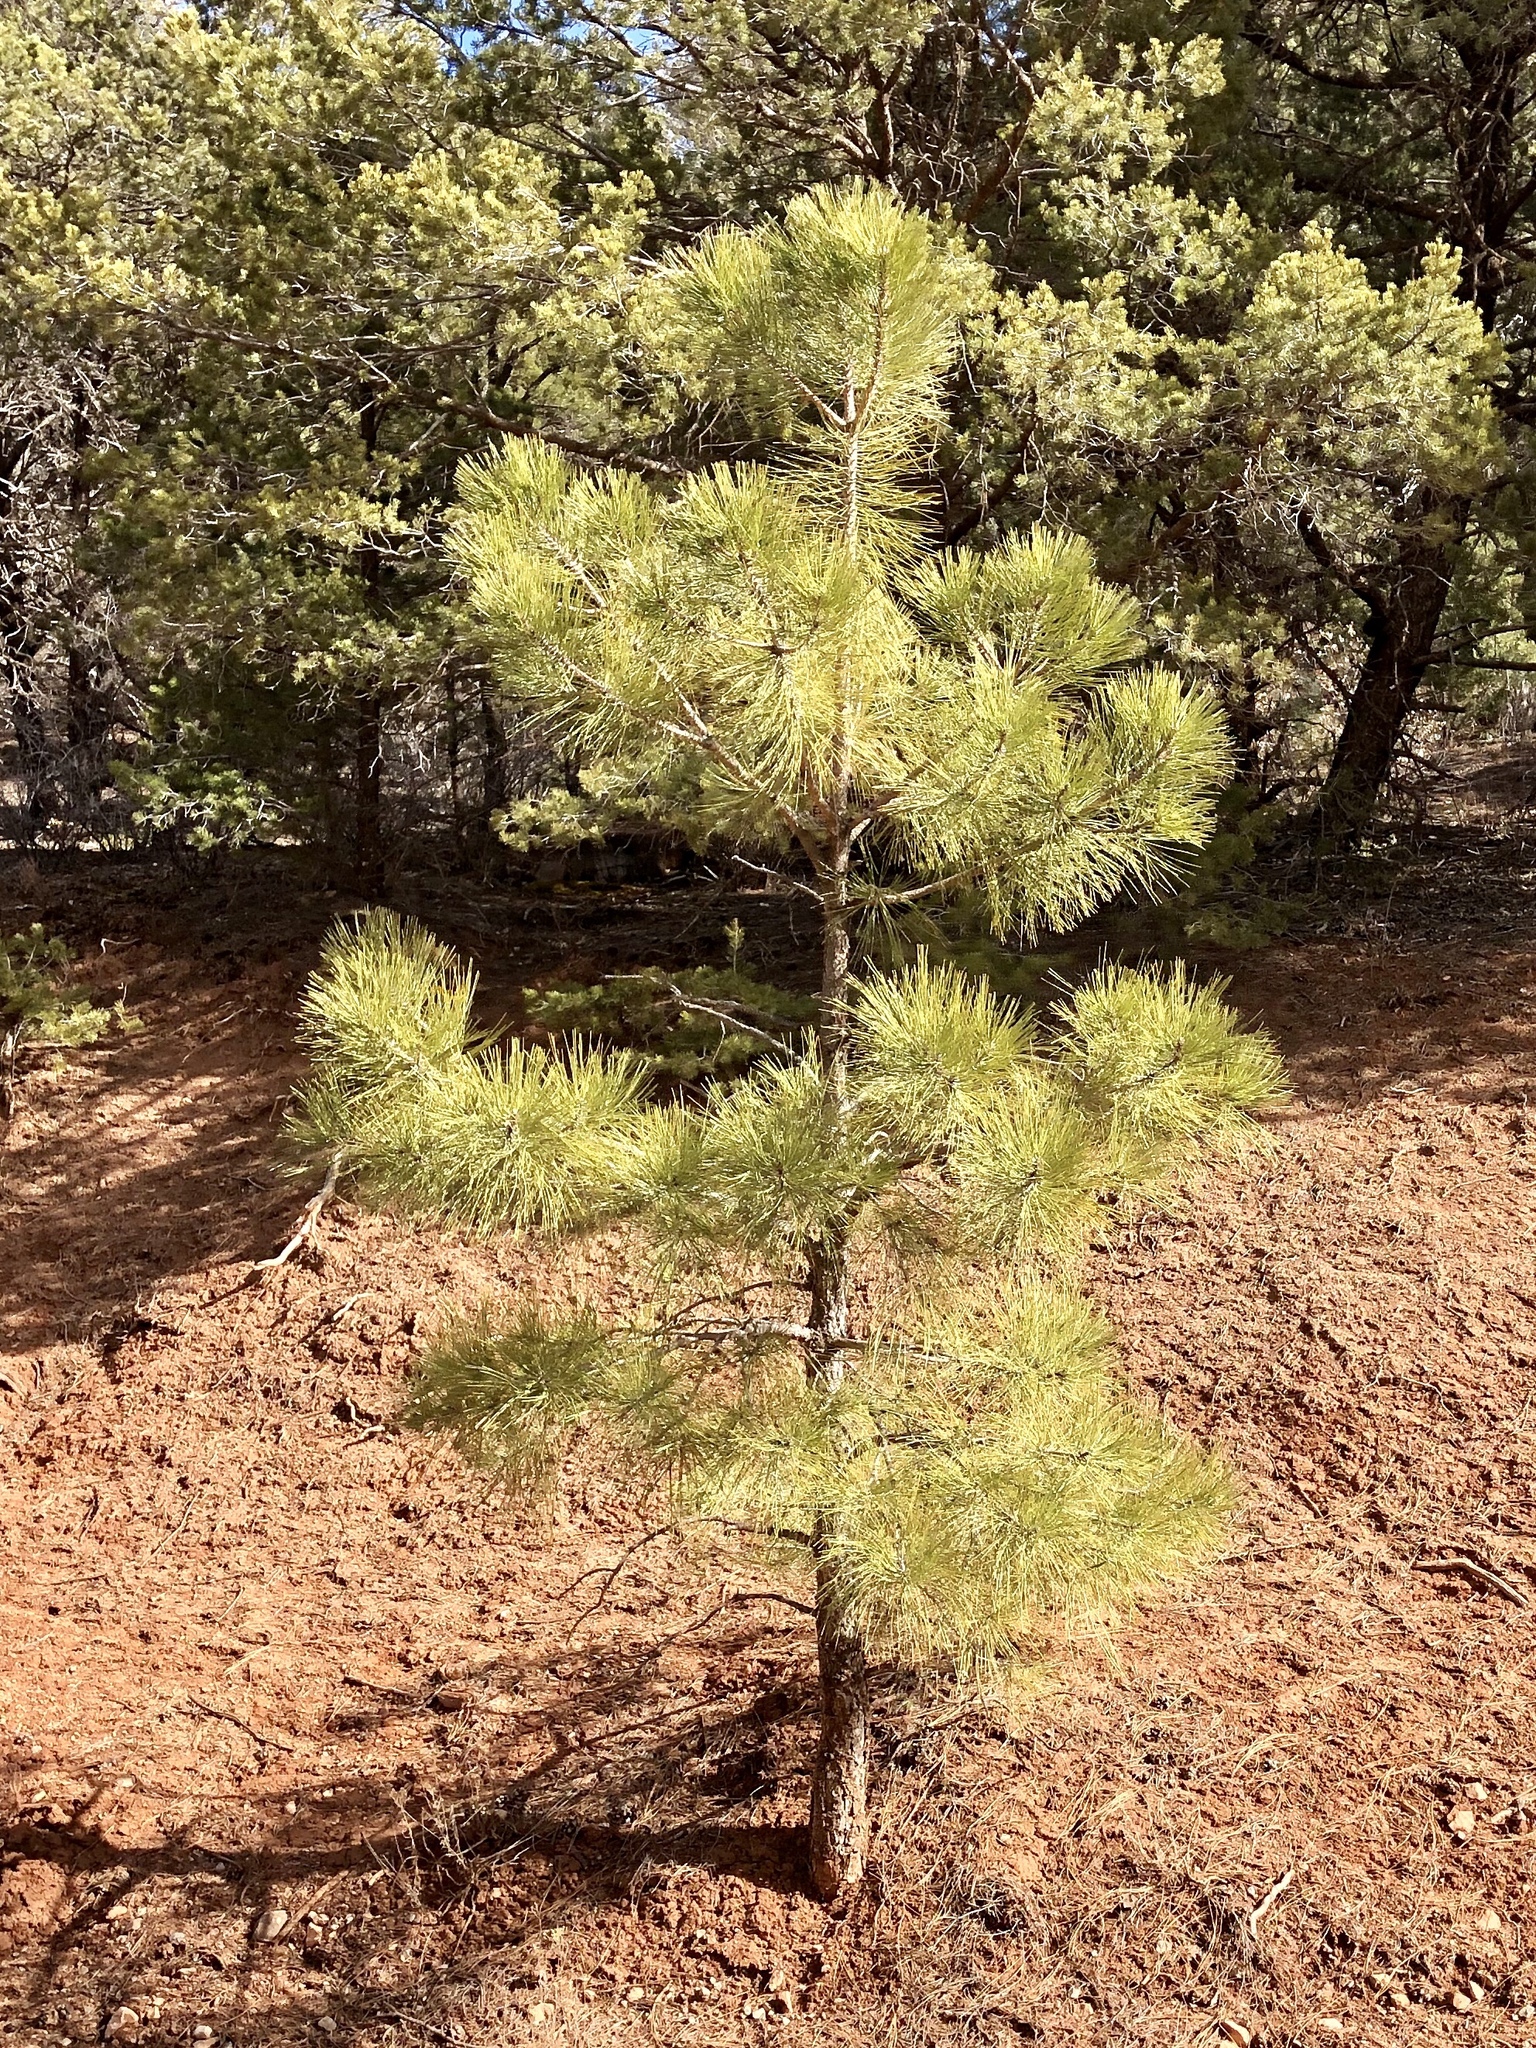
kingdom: Plantae
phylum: Tracheophyta
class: Pinopsida
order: Pinales
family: Pinaceae
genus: Pinus
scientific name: Pinus ponderosa
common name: Western yellow-pine
